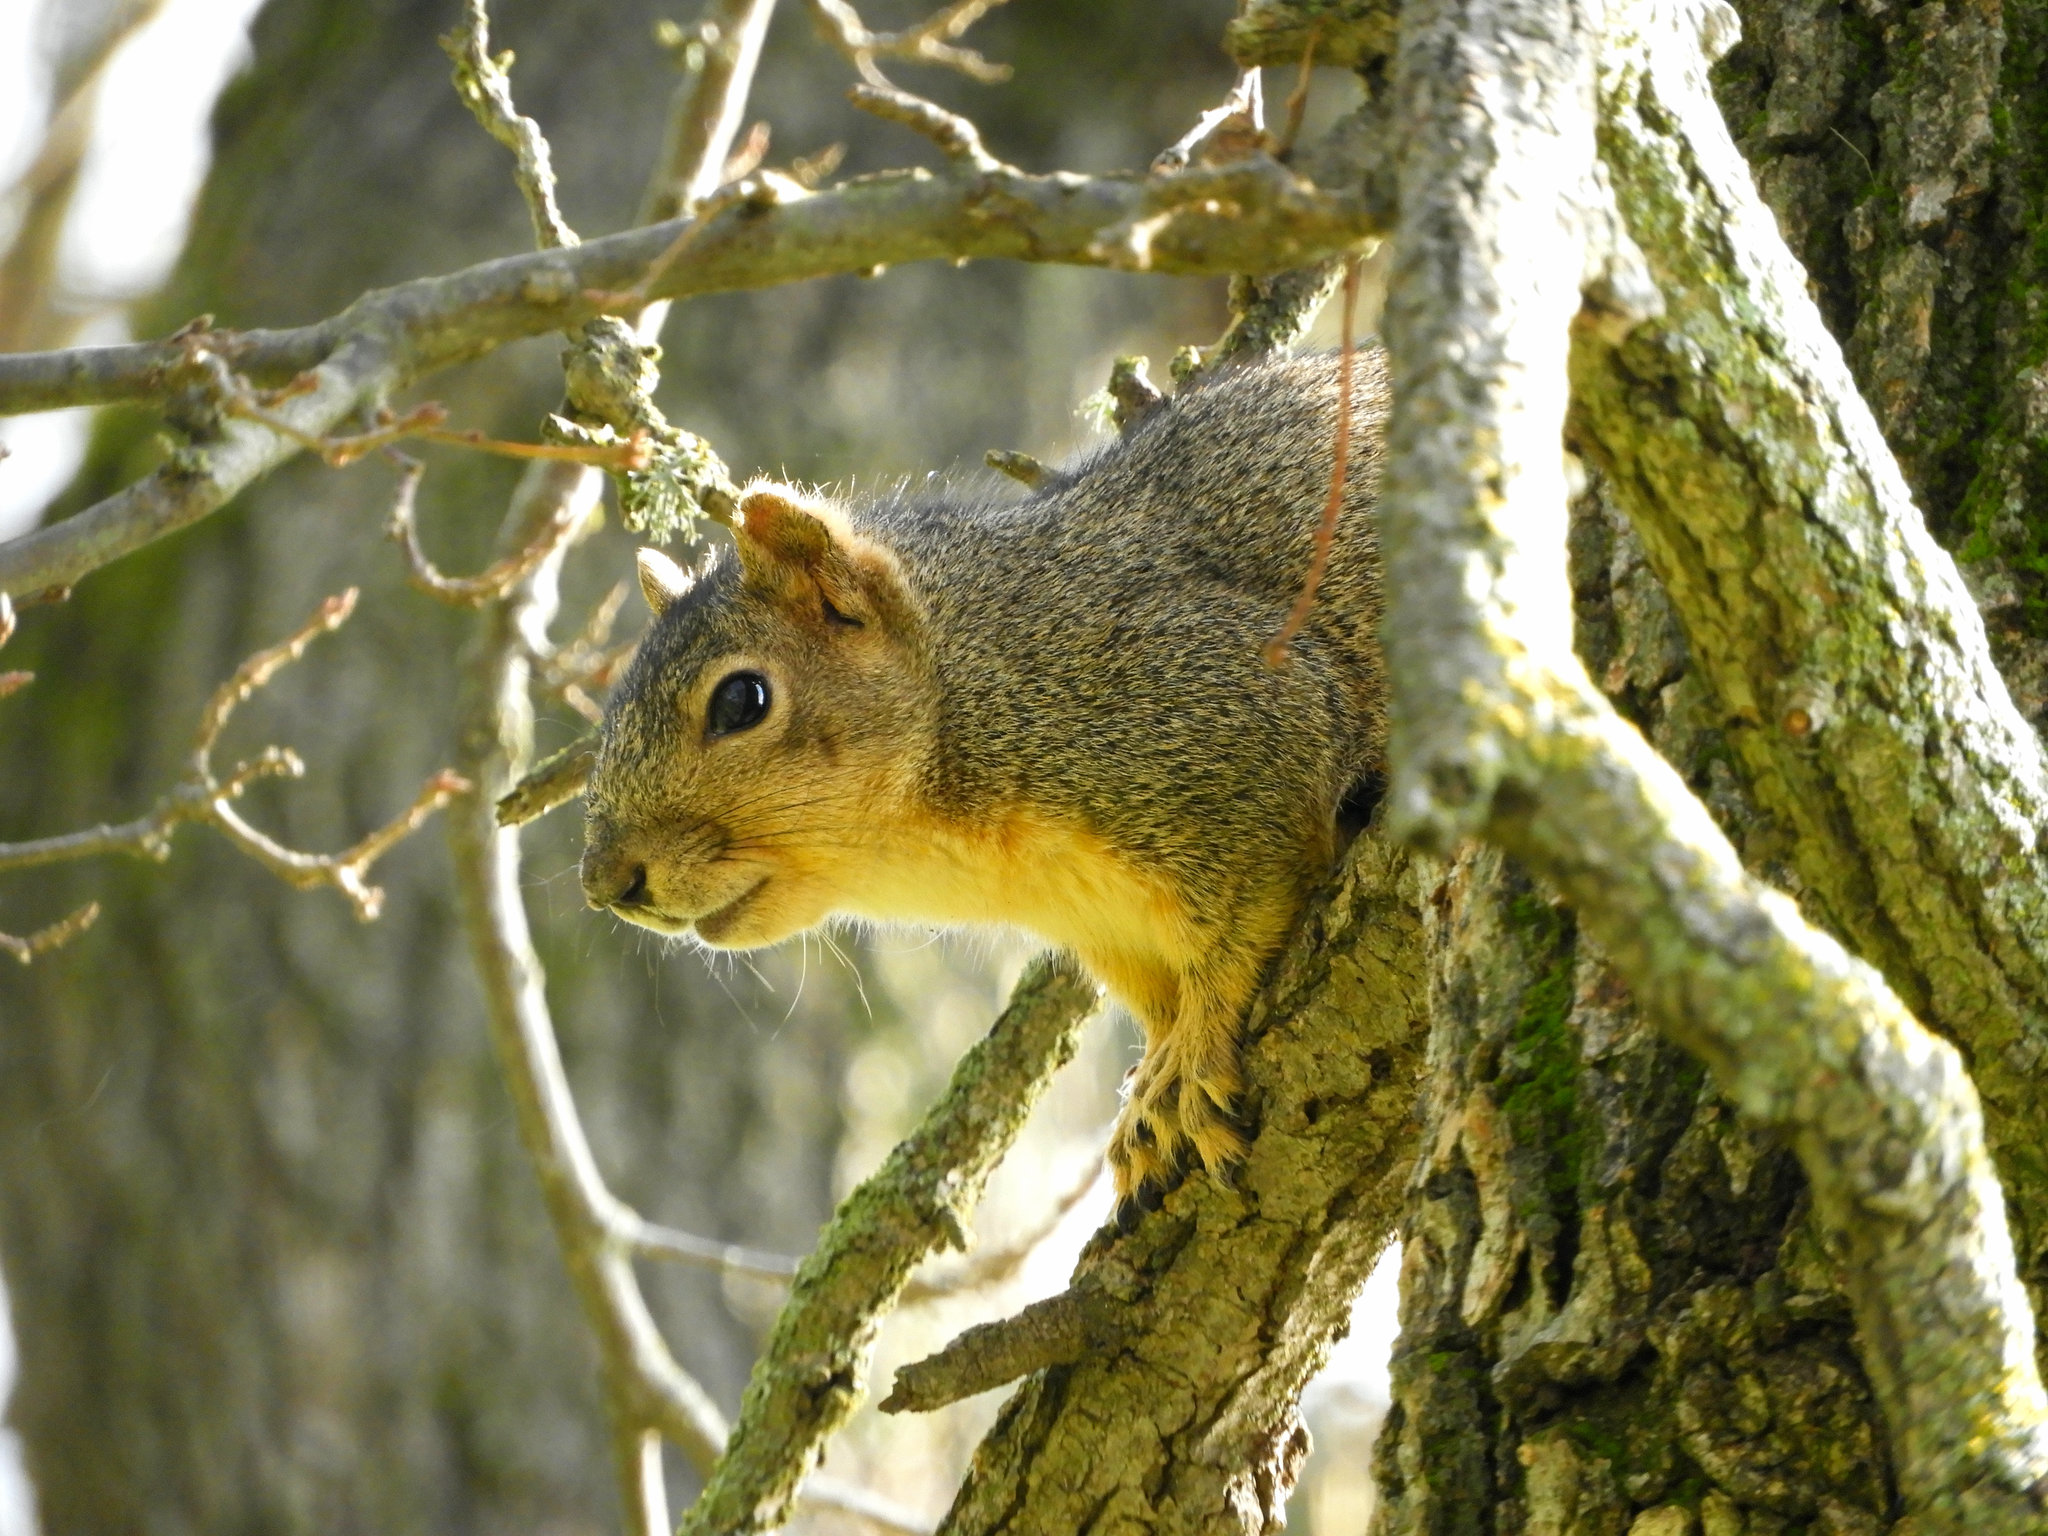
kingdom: Animalia
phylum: Chordata
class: Mammalia
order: Rodentia
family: Sciuridae
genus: Sciurus
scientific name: Sciurus niger
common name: Fox squirrel
